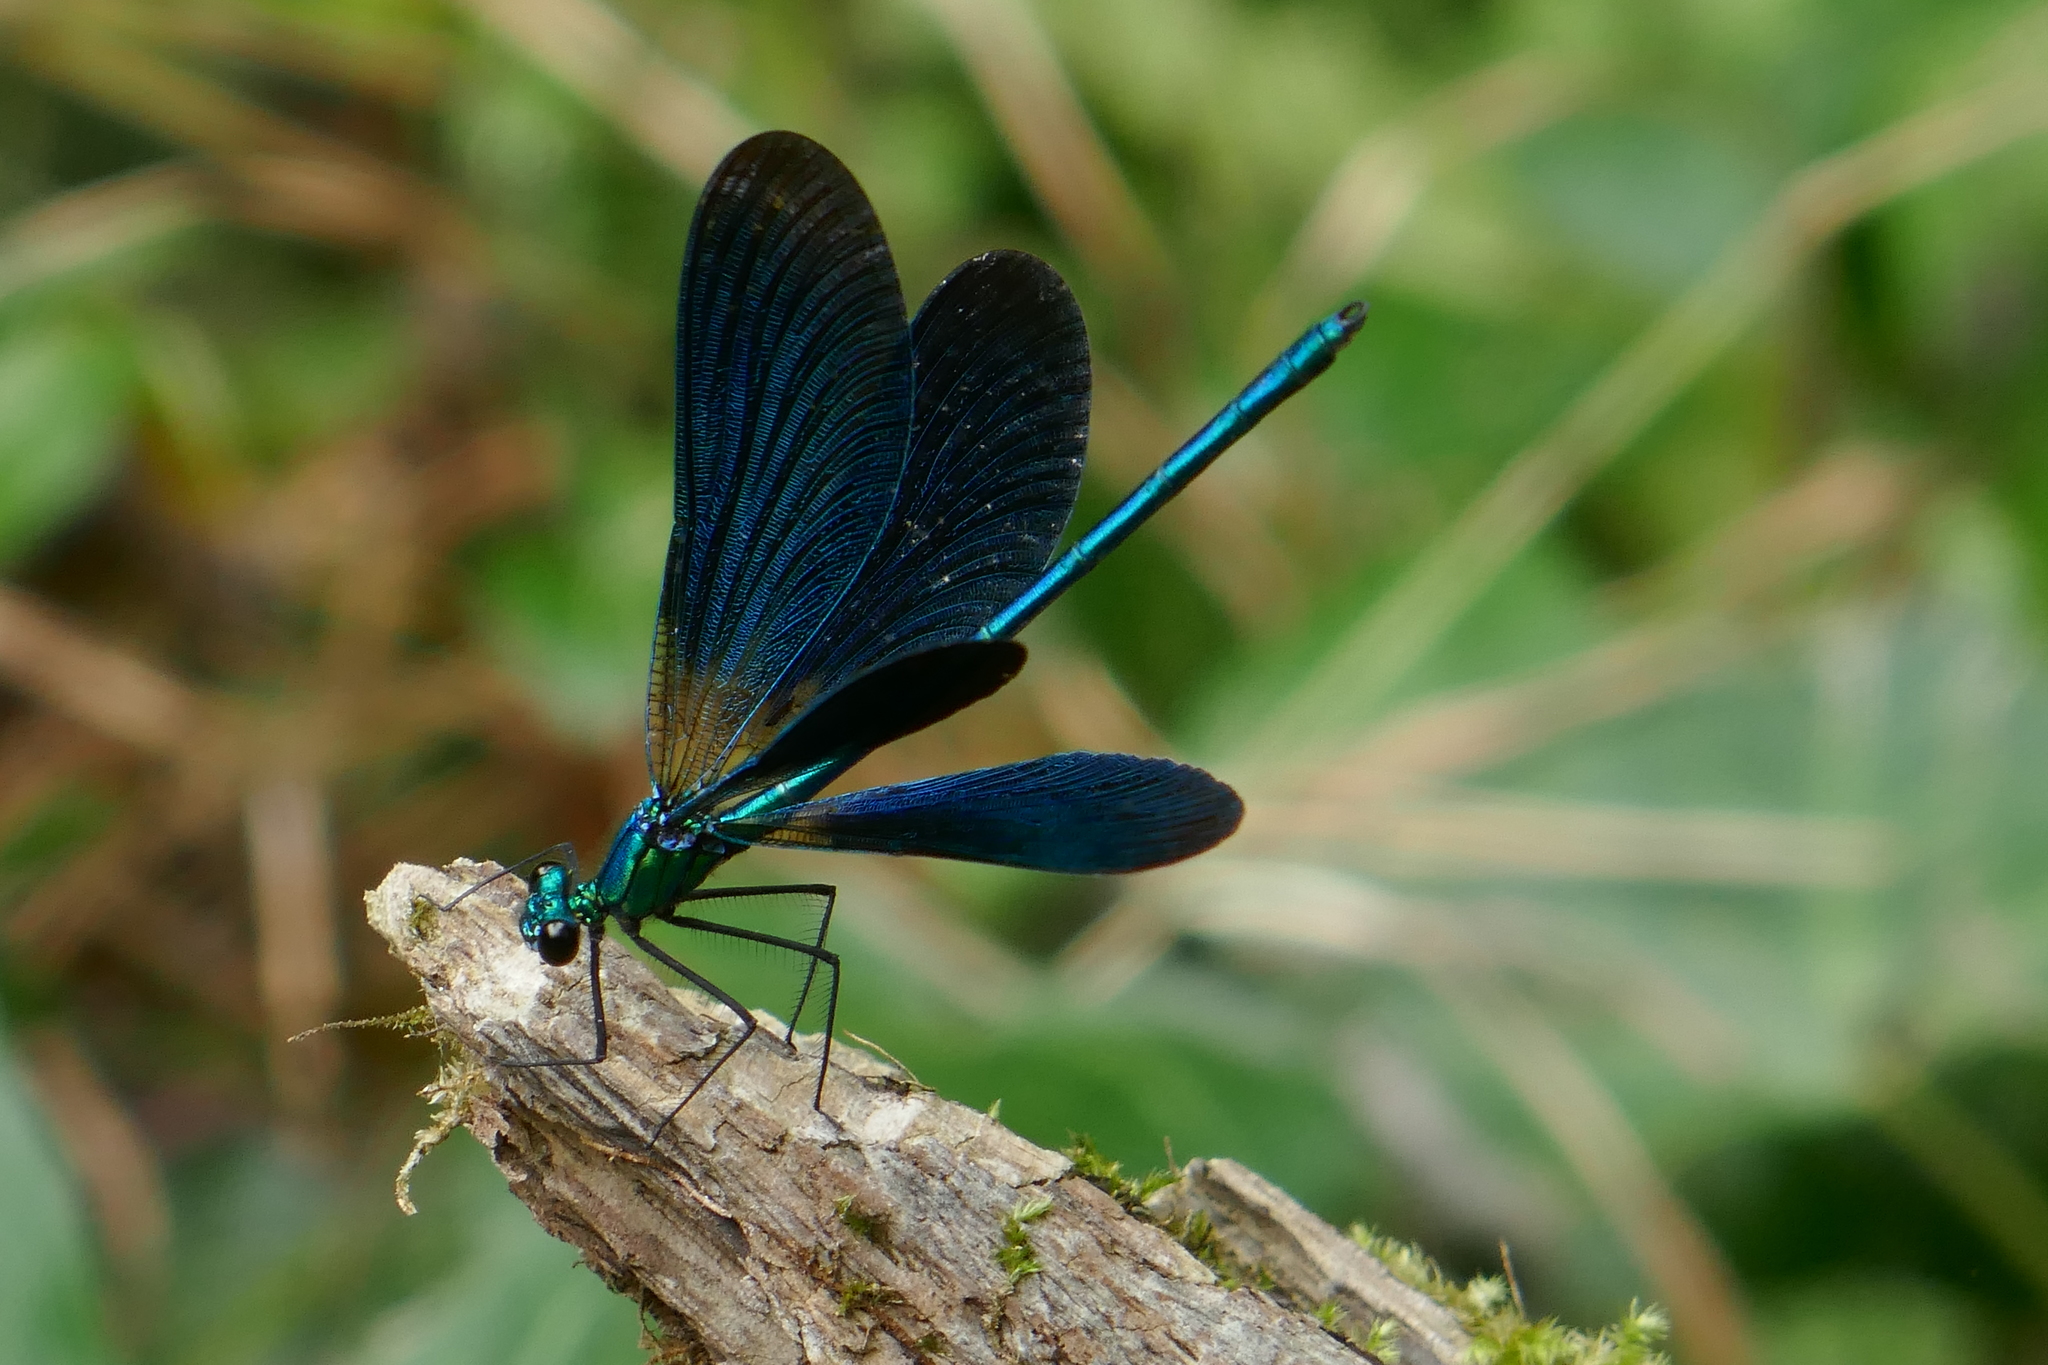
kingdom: Animalia
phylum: Arthropoda
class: Insecta
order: Odonata
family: Calopterygidae
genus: Calopteryx
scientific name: Calopteryx virgo
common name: Beautiful demoiselle
